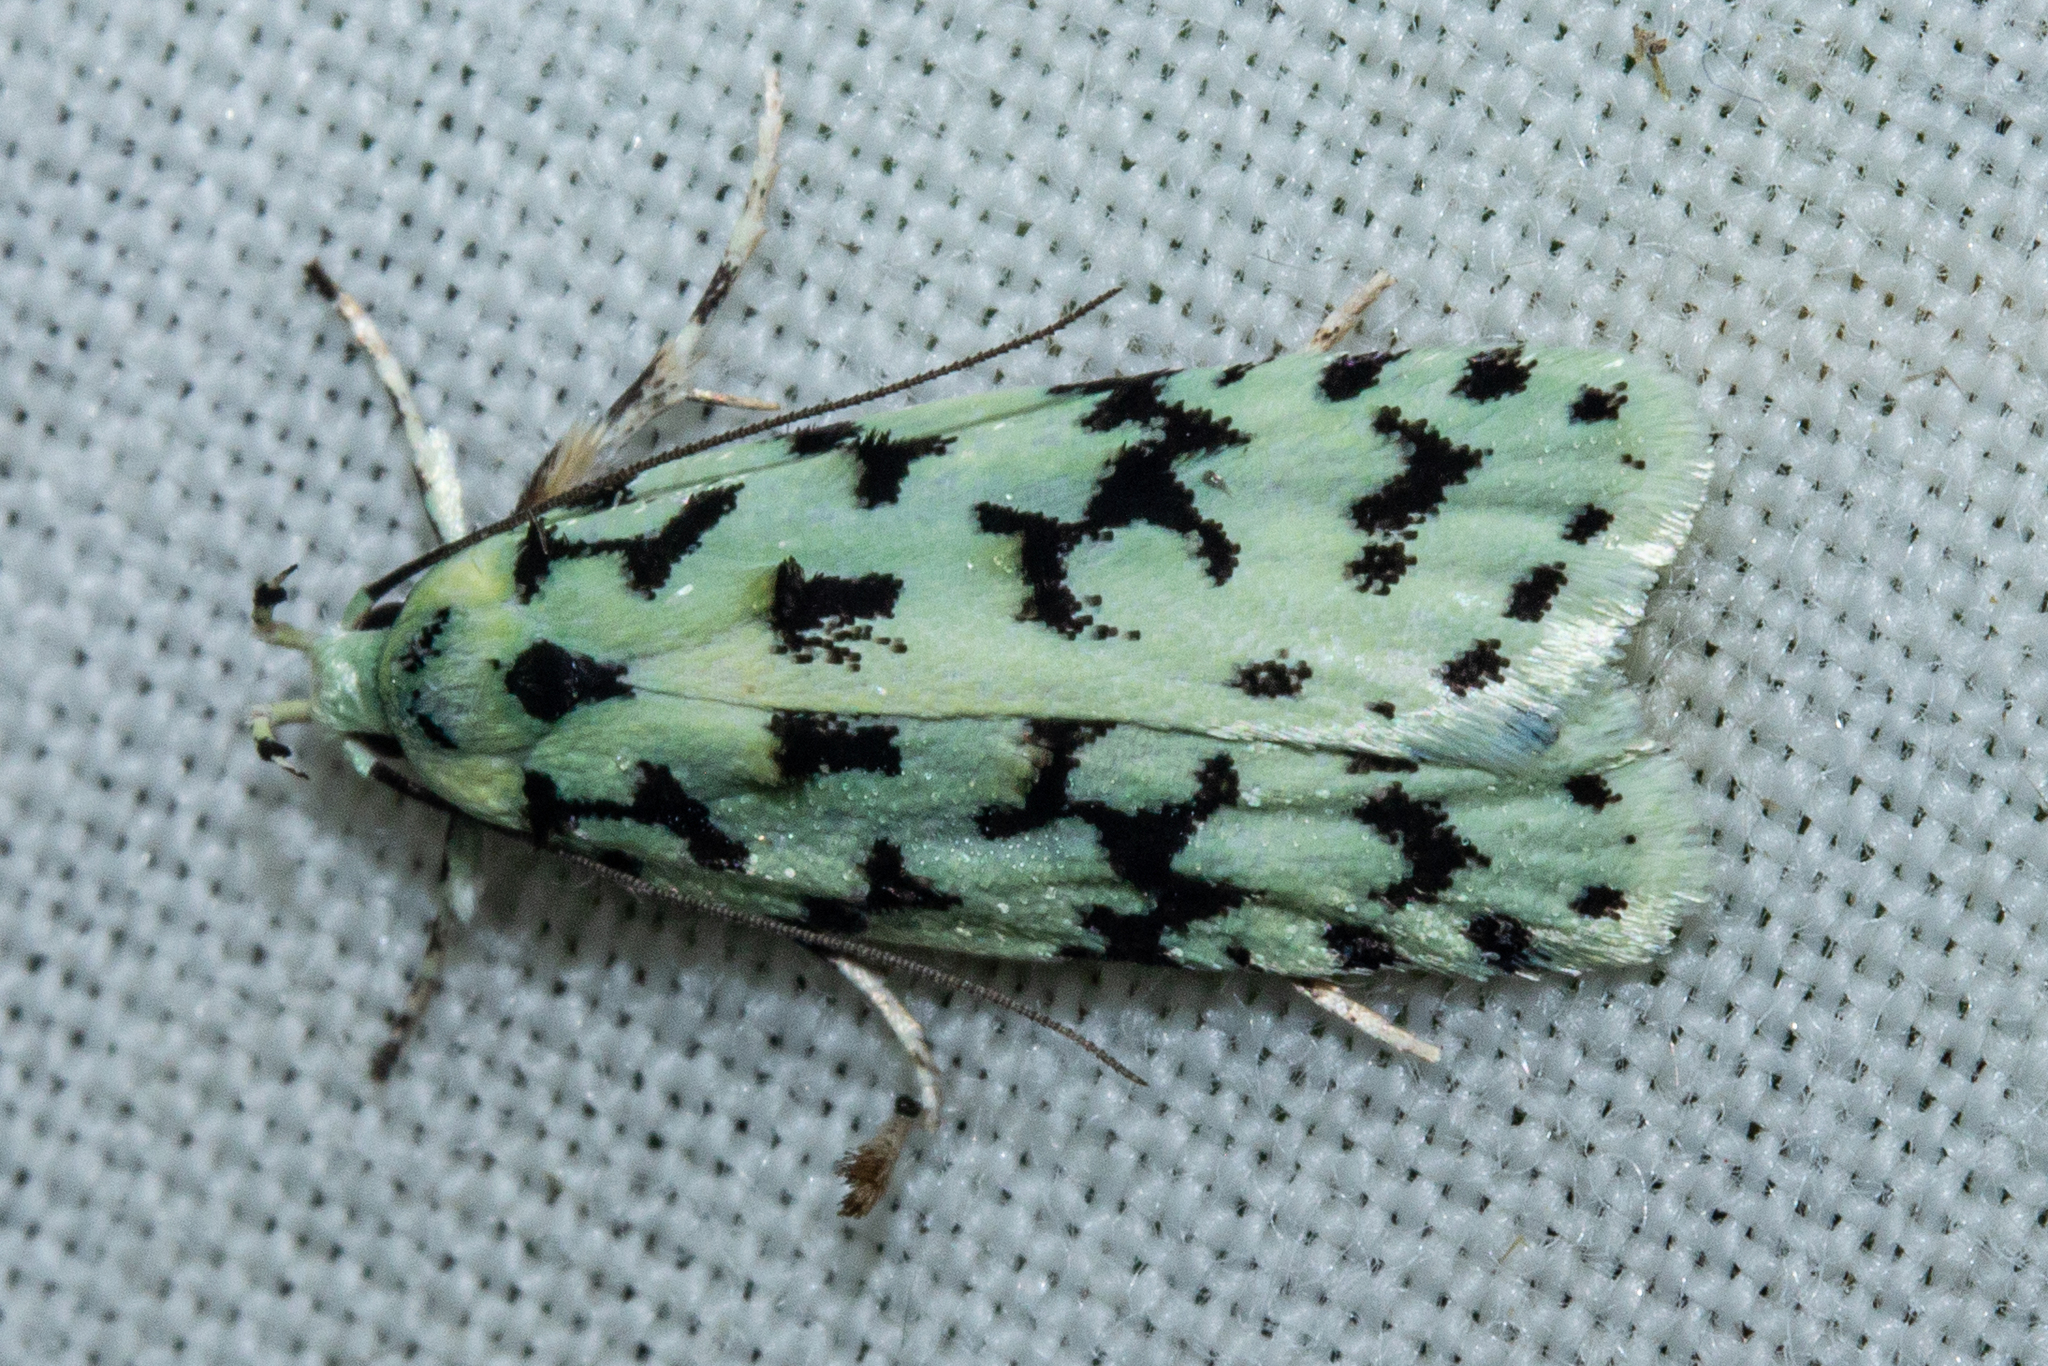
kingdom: Animalia
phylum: Arthropoda
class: Insecta
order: Lepidoptera
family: Oecophoridae
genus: Izatha
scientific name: Izatha huttoni
